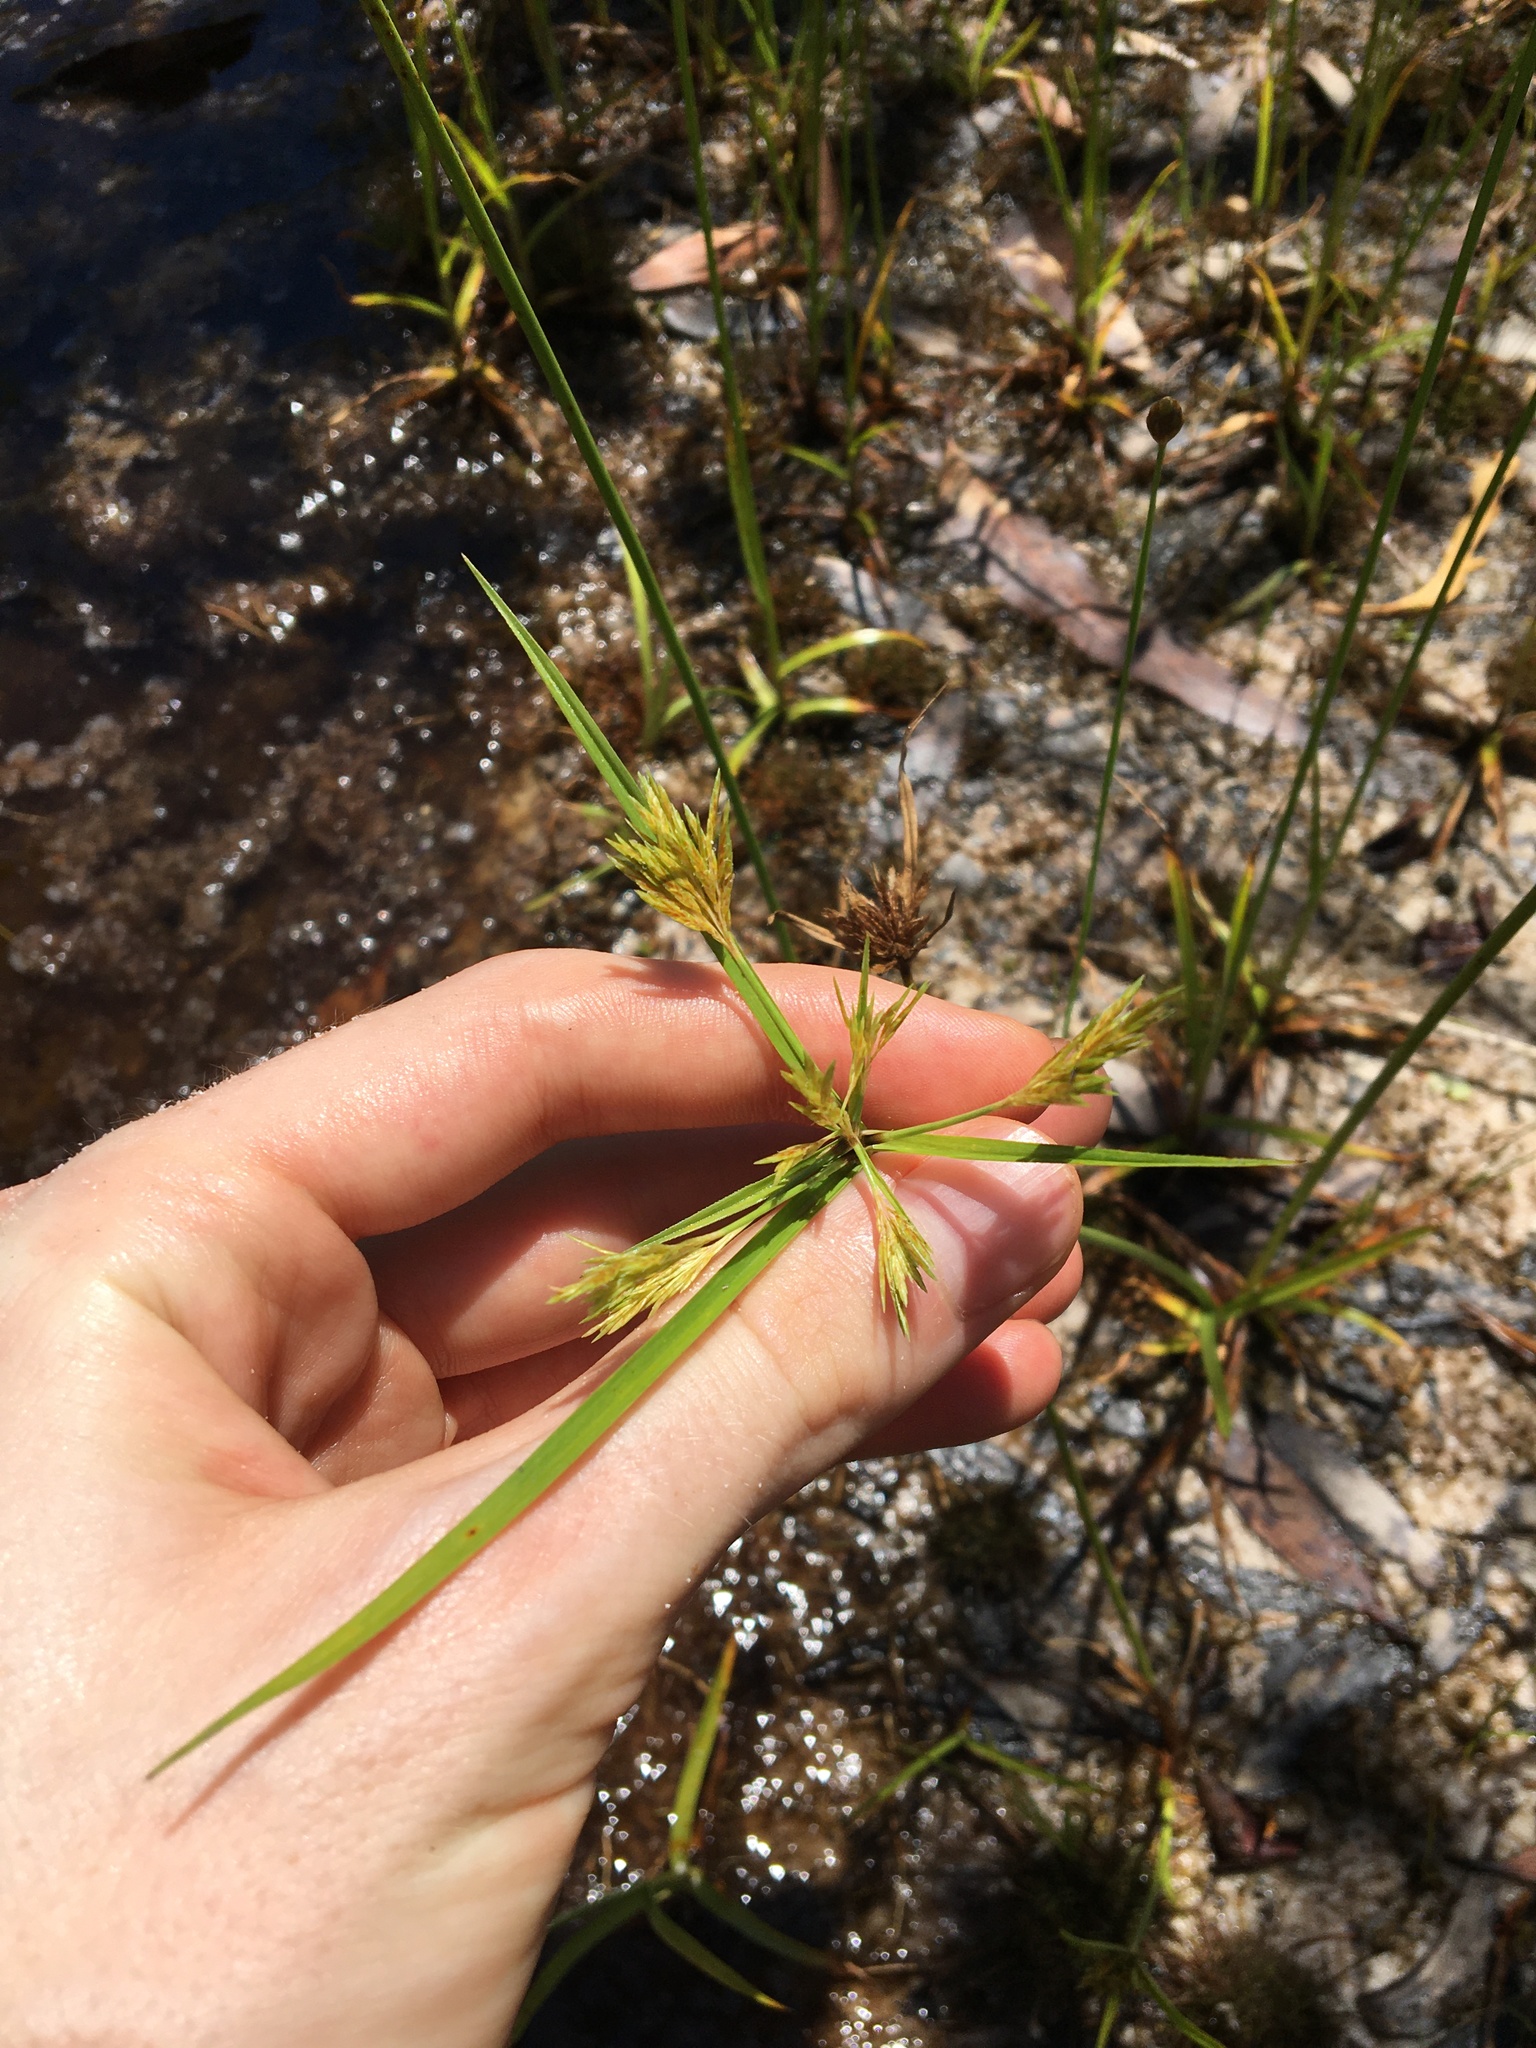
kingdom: Plantae
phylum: Tracheophyta
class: Liliopsida
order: Poales
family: Cyperaceae
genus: Cyperus
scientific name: Cyperus polystachyos
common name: Bunchy flat sedge
